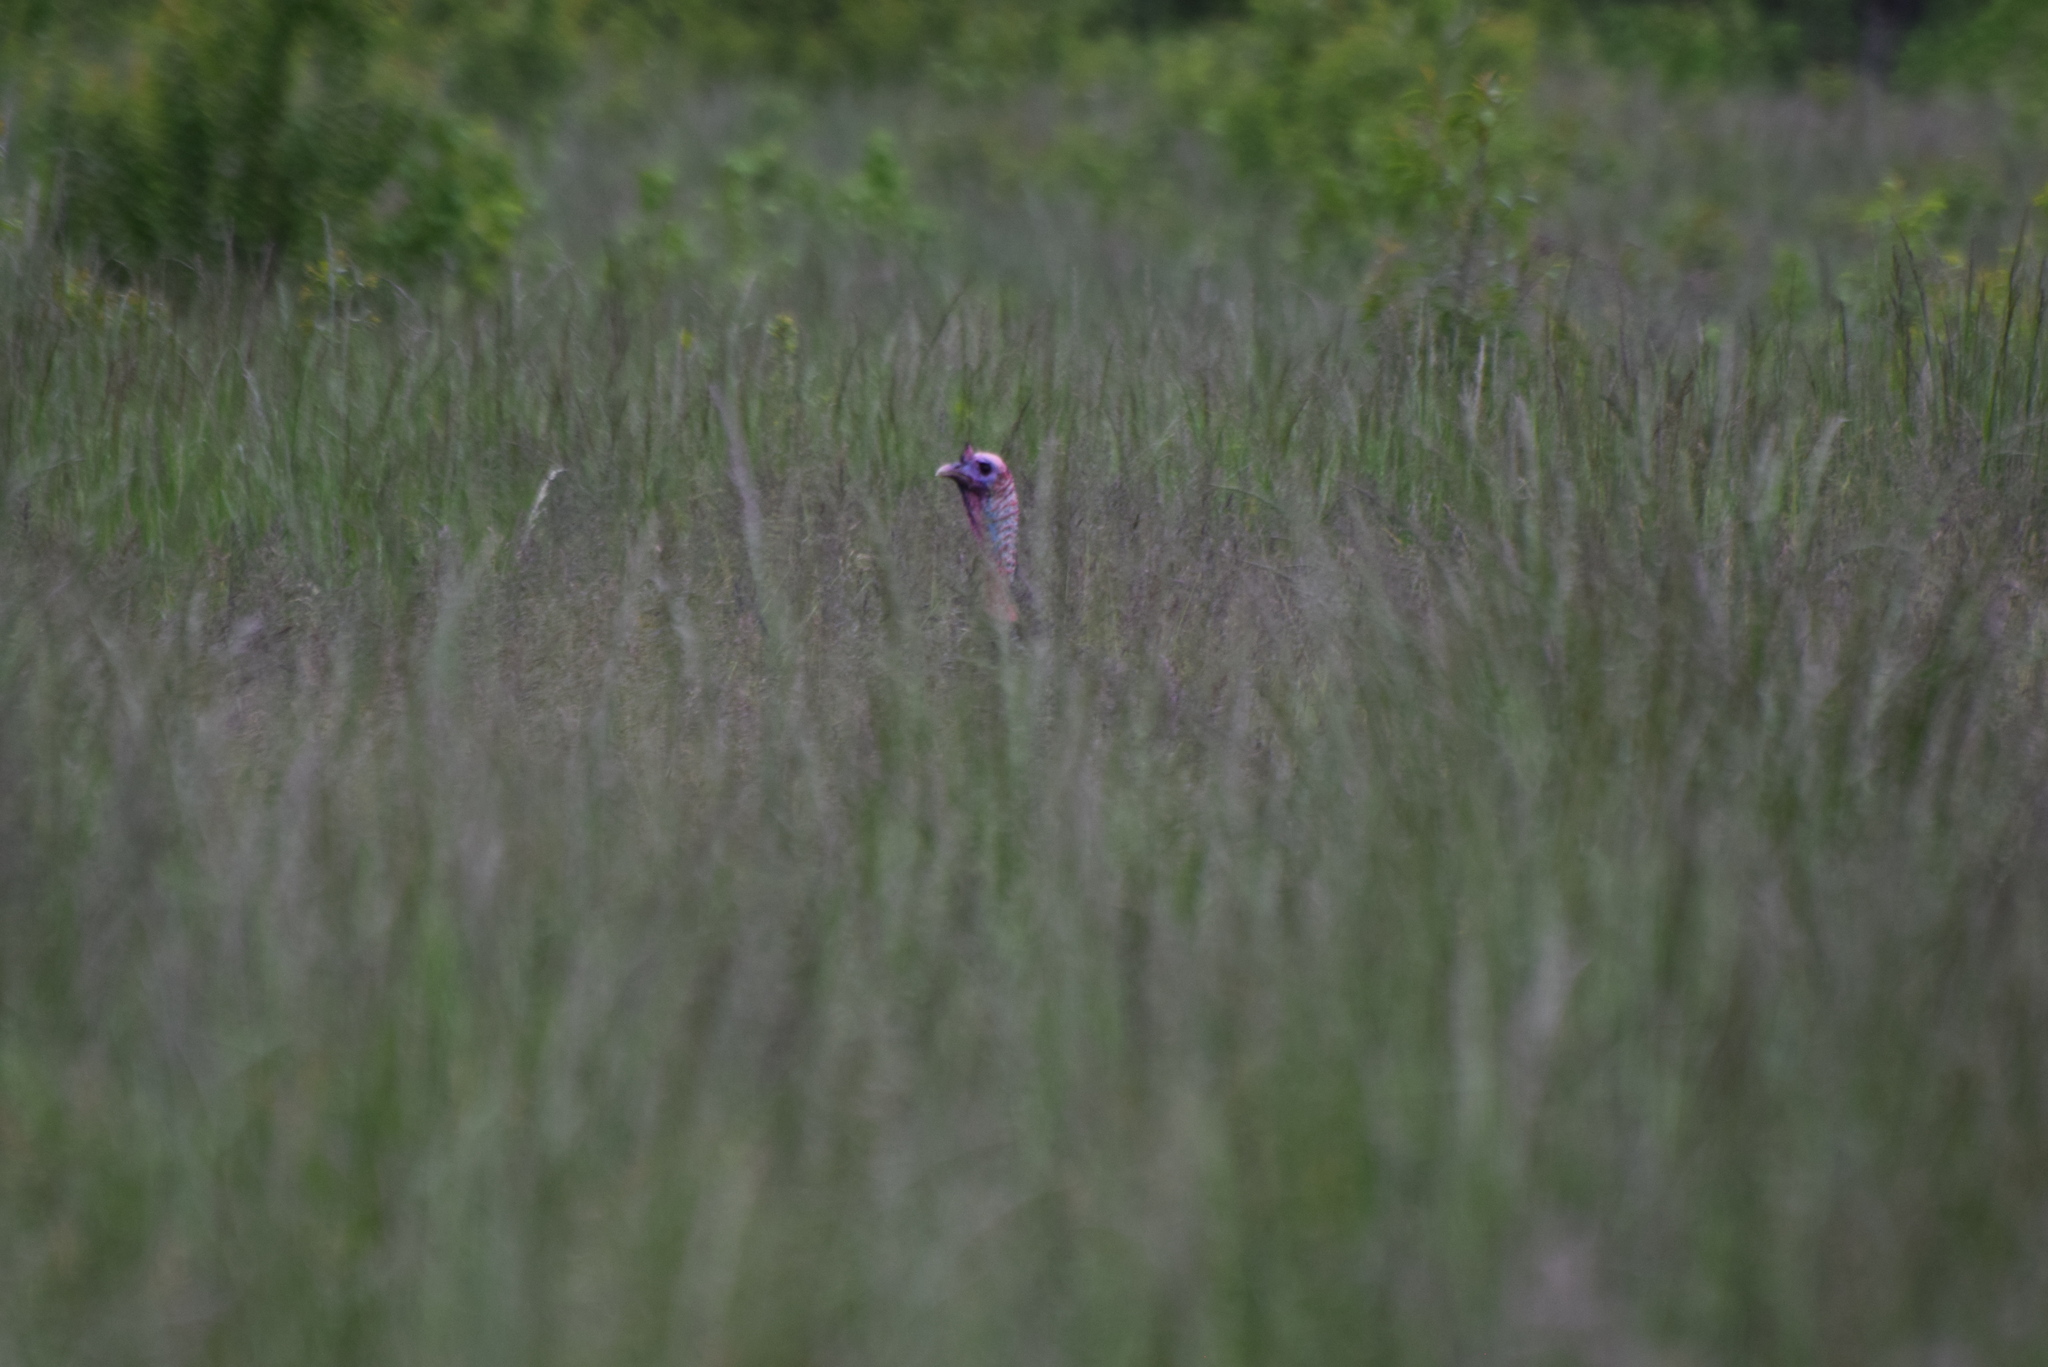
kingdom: Animalia
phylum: Chordata
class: Aves
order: Galliformes
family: Phasianidae
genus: Meleagris
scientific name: Meleagris gallopavo
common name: Wild turkey
